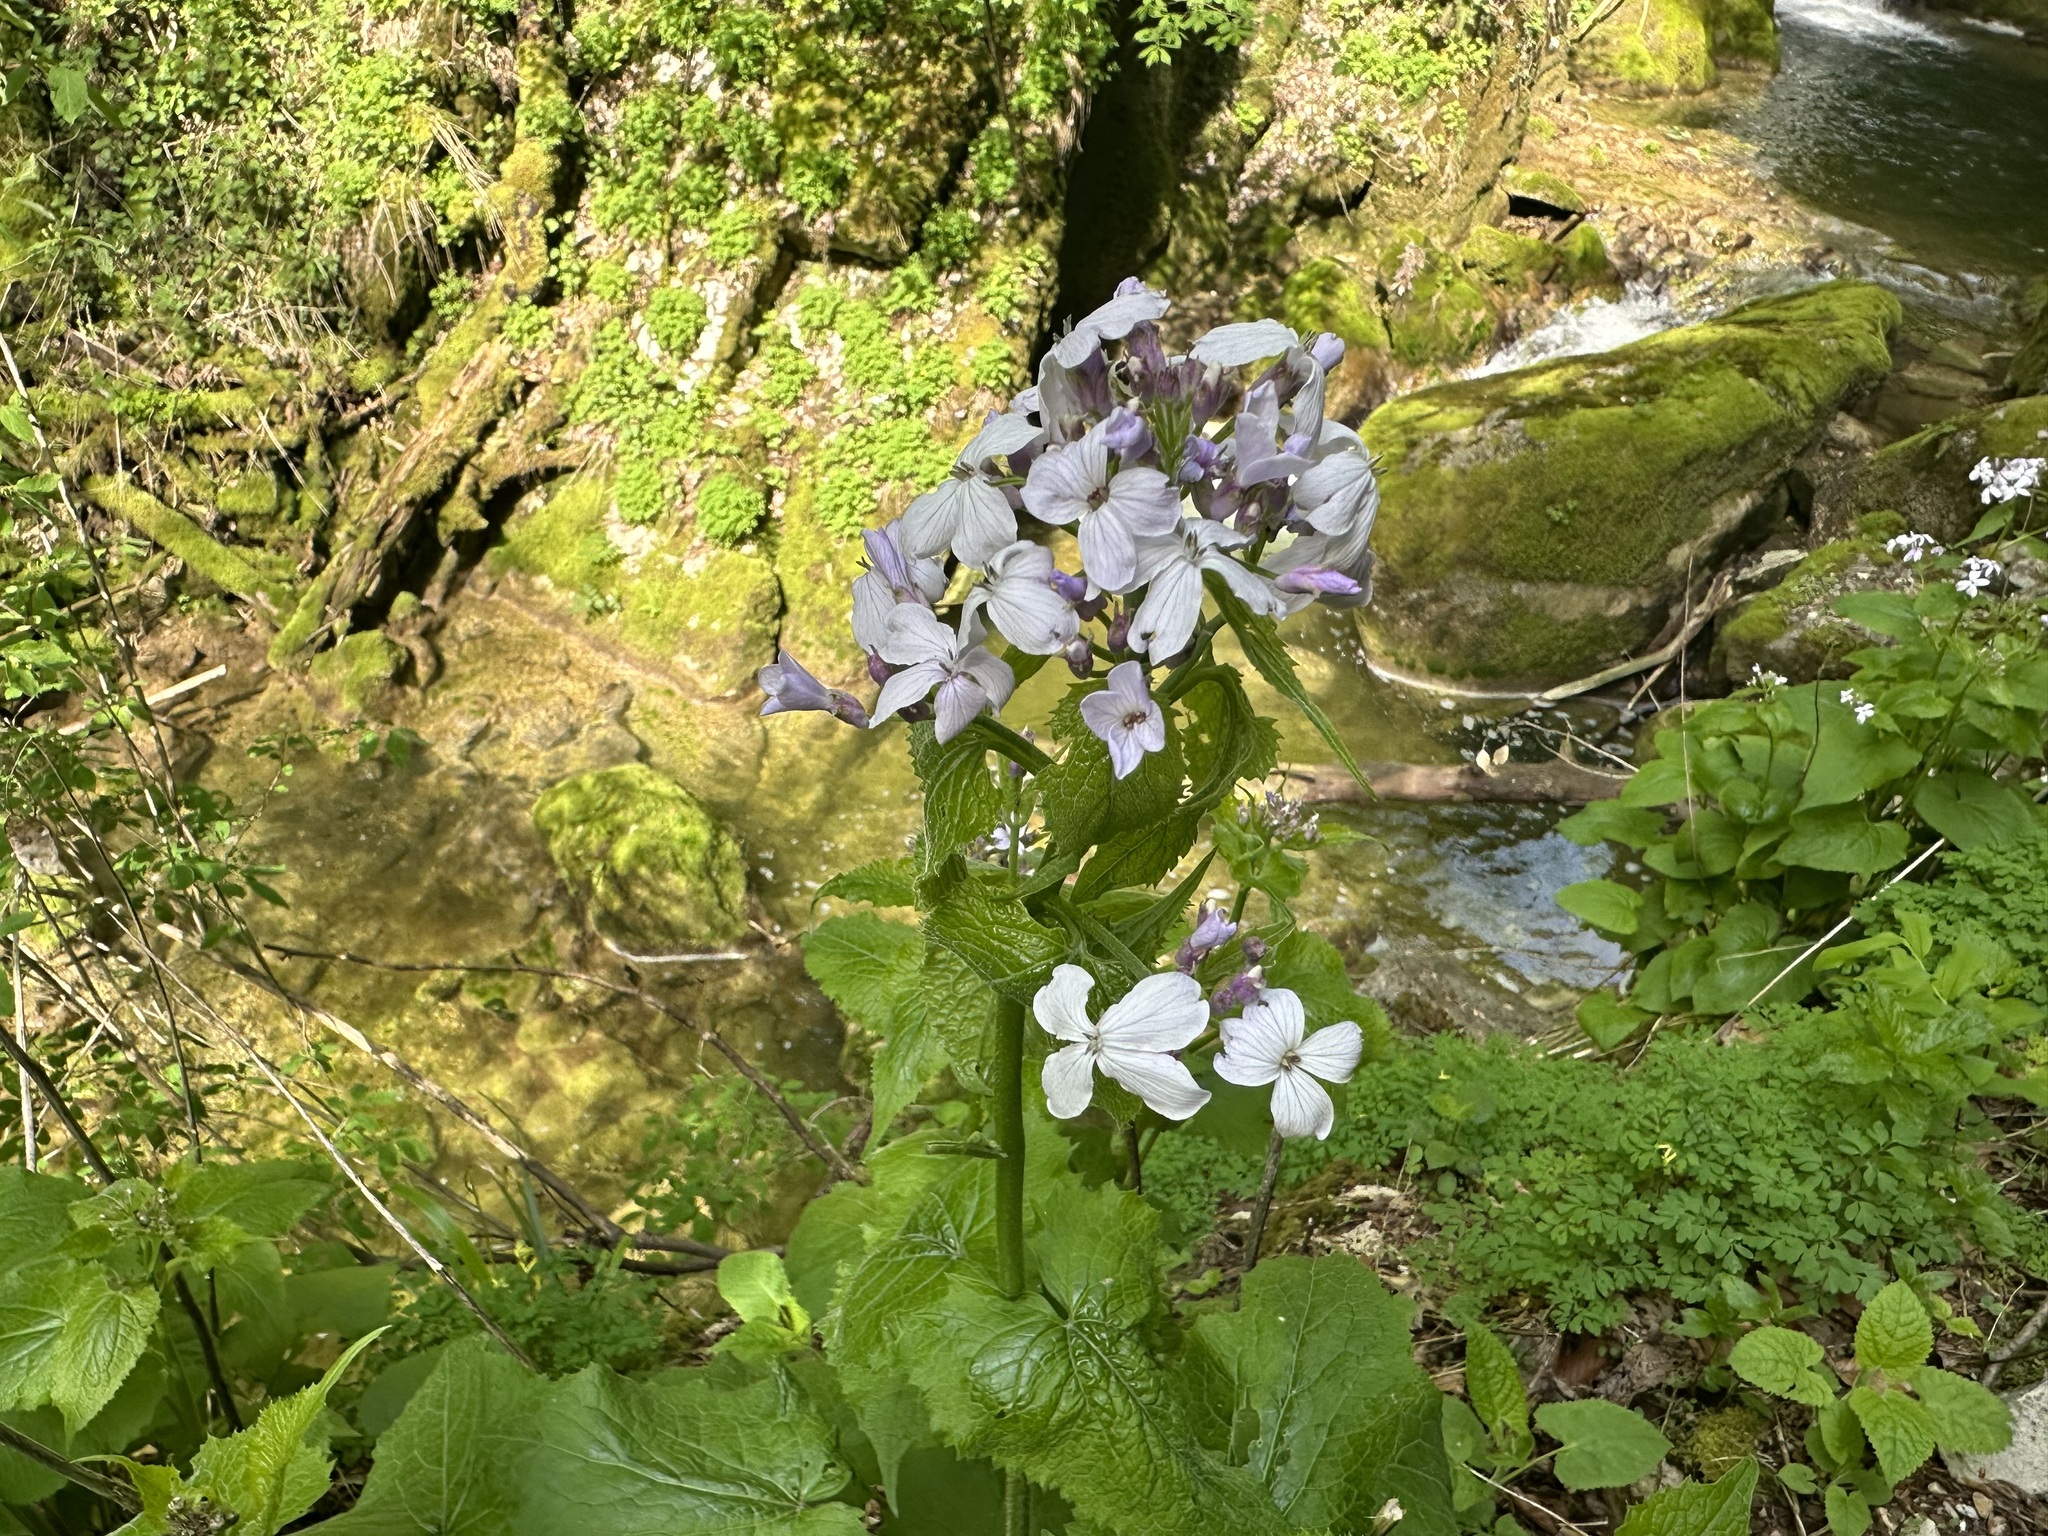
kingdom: Plantae
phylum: Tracheophyta
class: Magnoliopsida
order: Brassicales
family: Brassicaceae
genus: Lunaria
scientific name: Lunaria rediviva
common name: Perennial honesty
